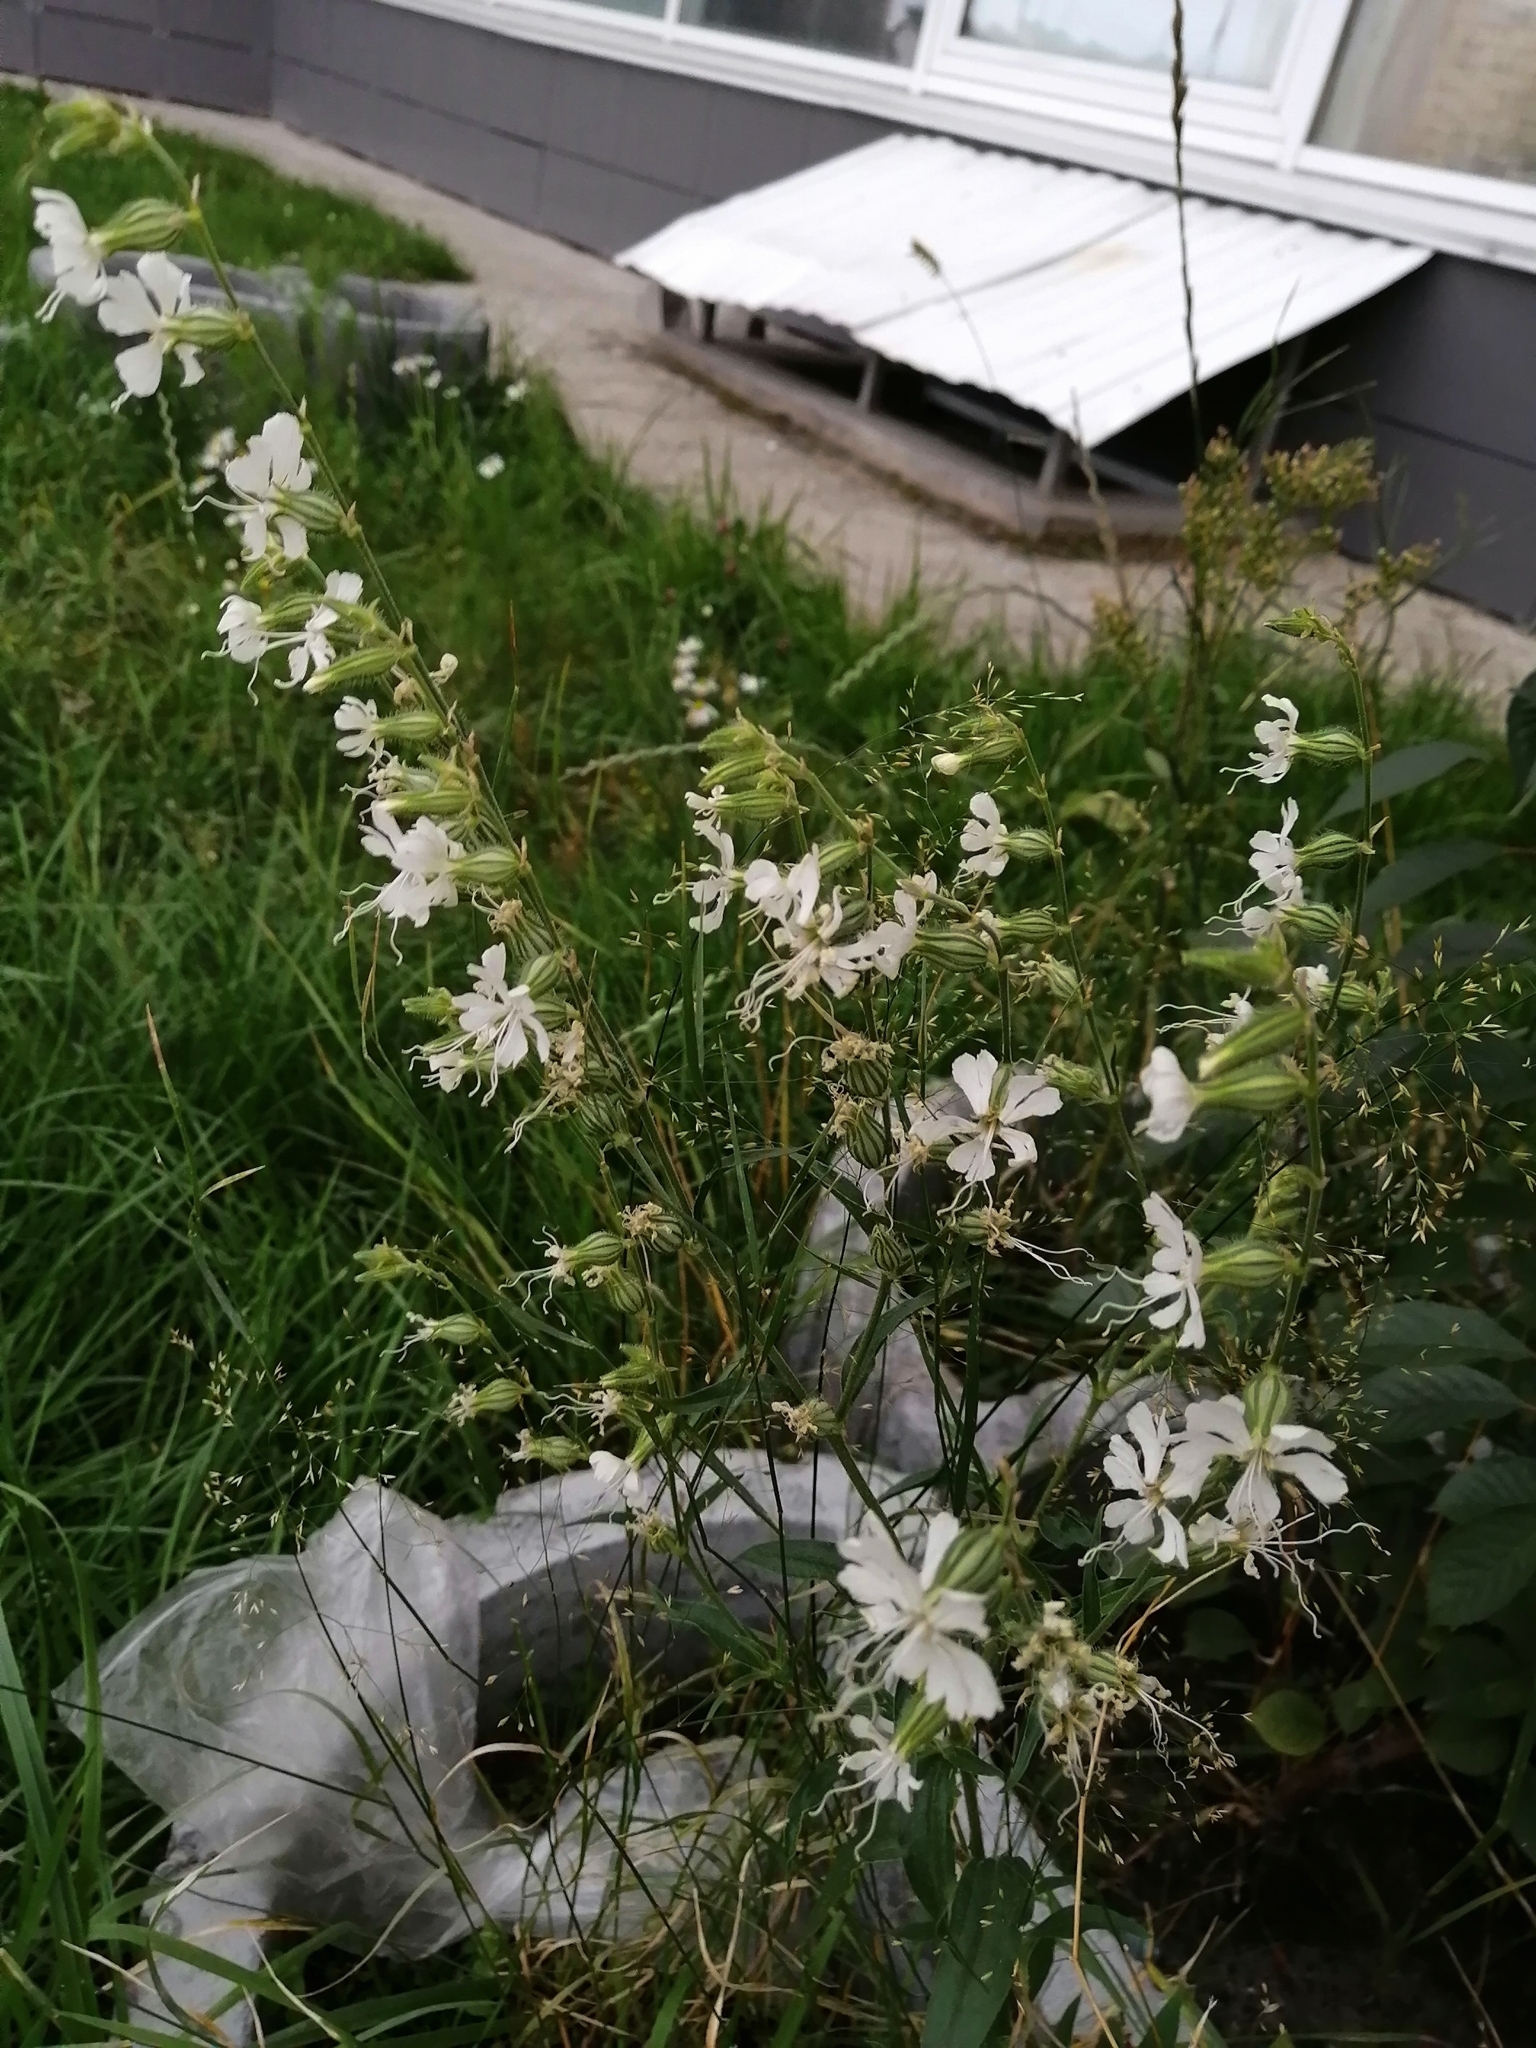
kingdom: Plantae
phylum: Tracheophyta
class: Magnoliopsida
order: Caryophyllales
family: Caryophyllaceae
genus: Silene
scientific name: Silene dichotoma
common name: Forked catchfly
